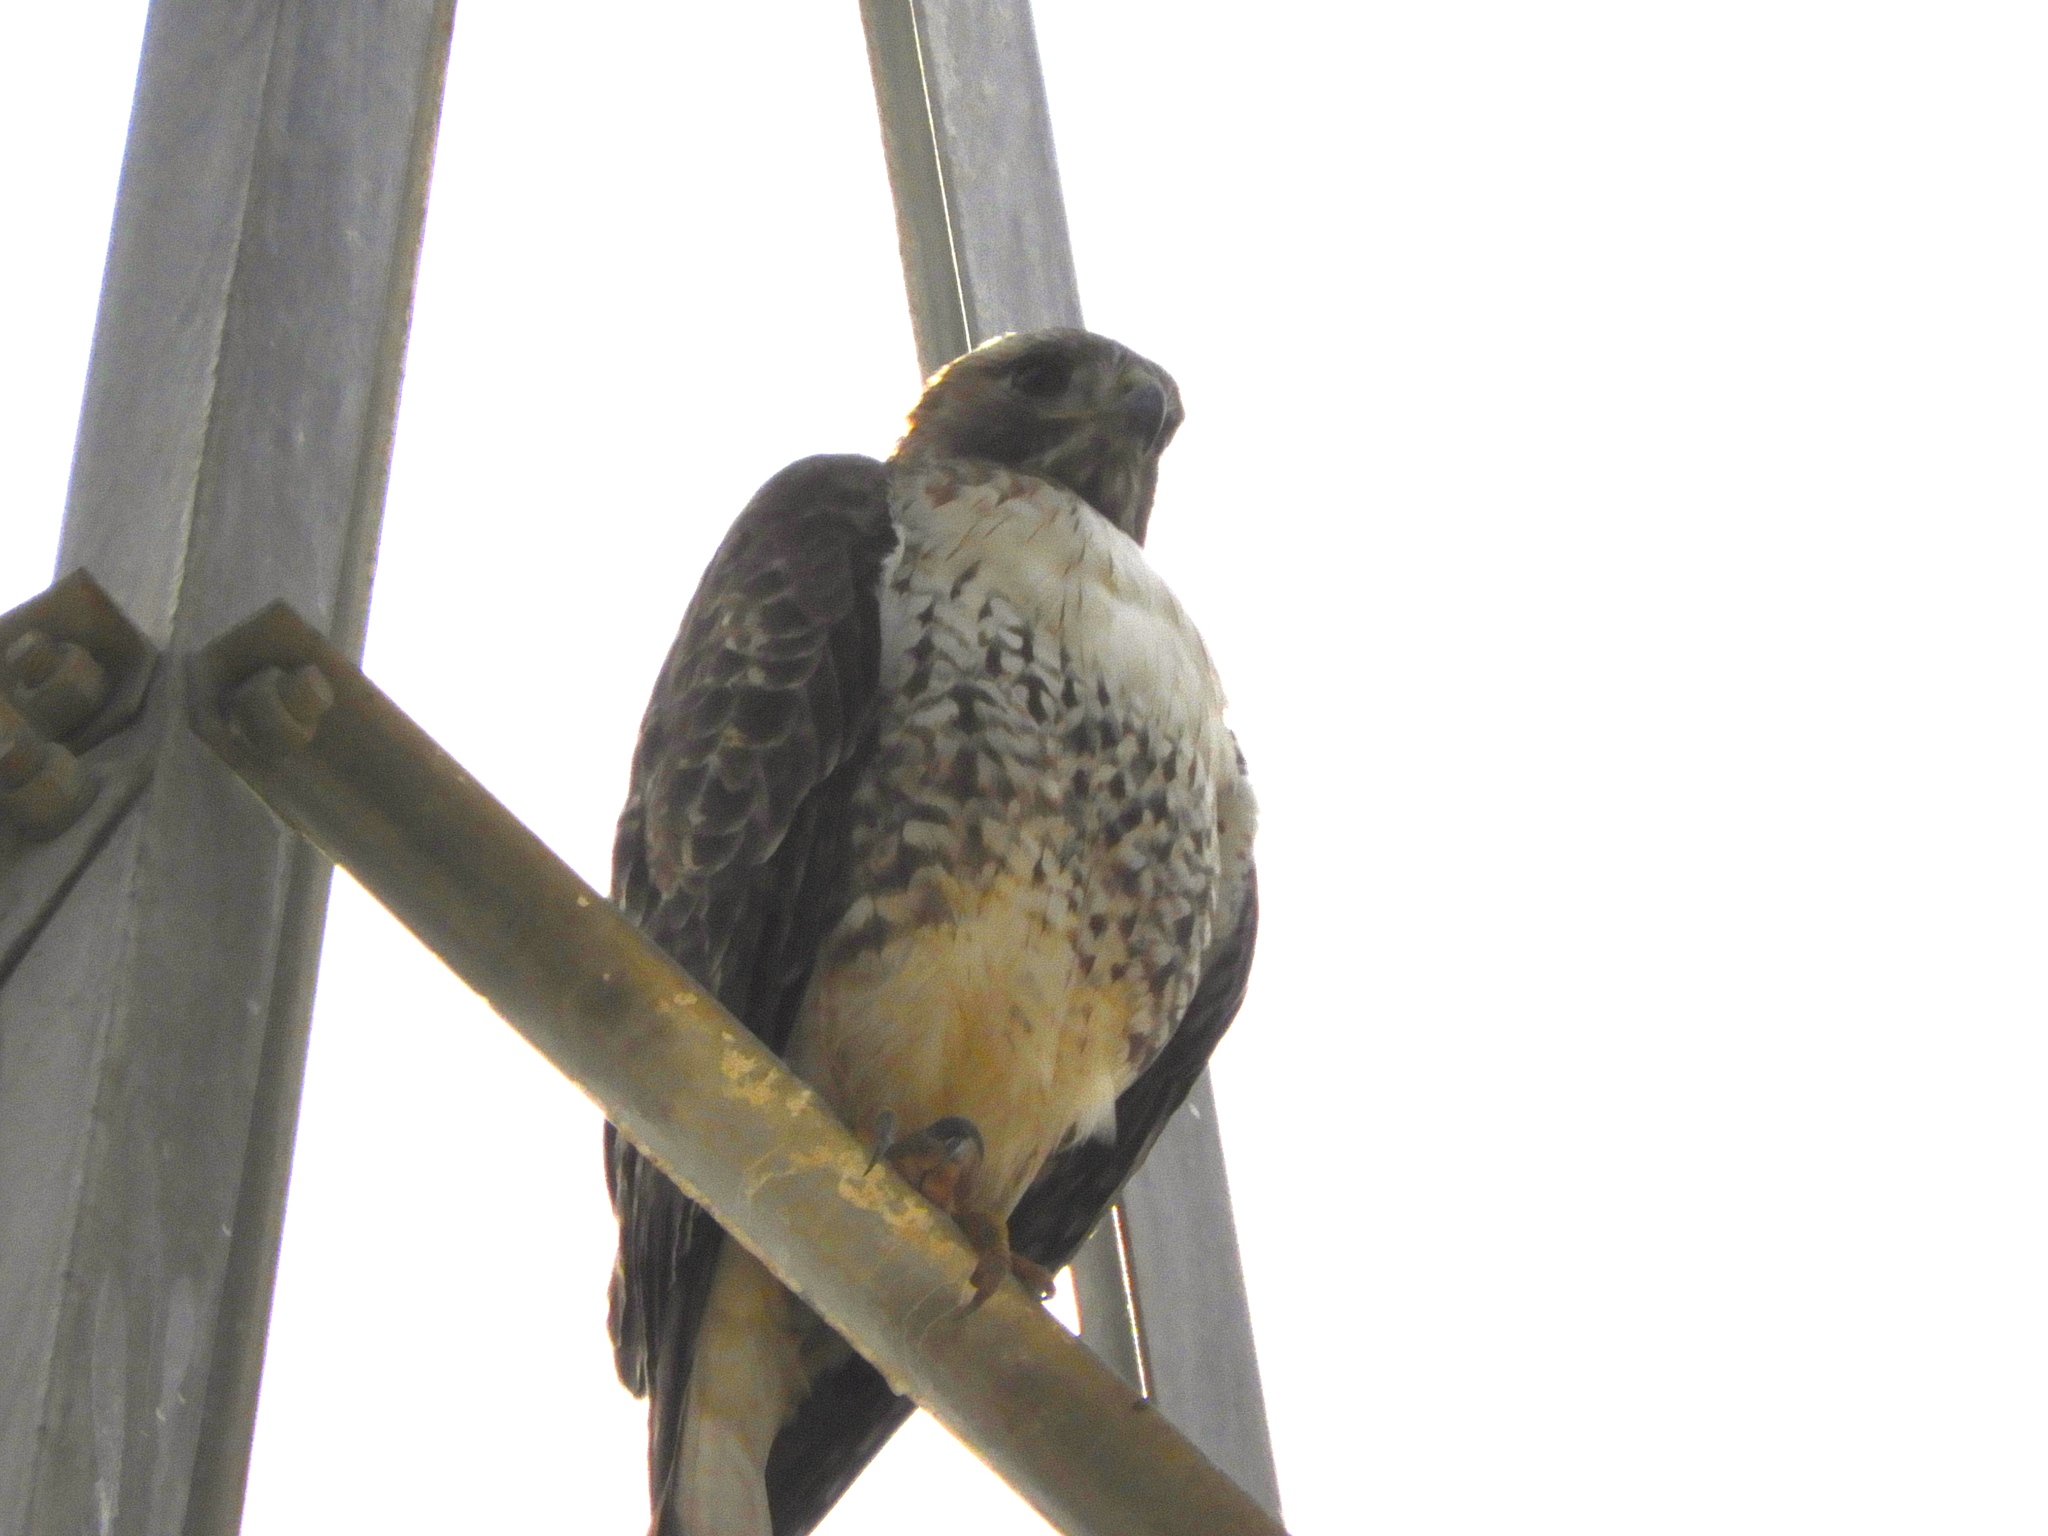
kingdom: Animalia
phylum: Chordata
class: Aves
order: Accipitriformes
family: Accipitridae
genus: Buteo
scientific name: Buteo jamaicensis
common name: Red-tailed hawk
